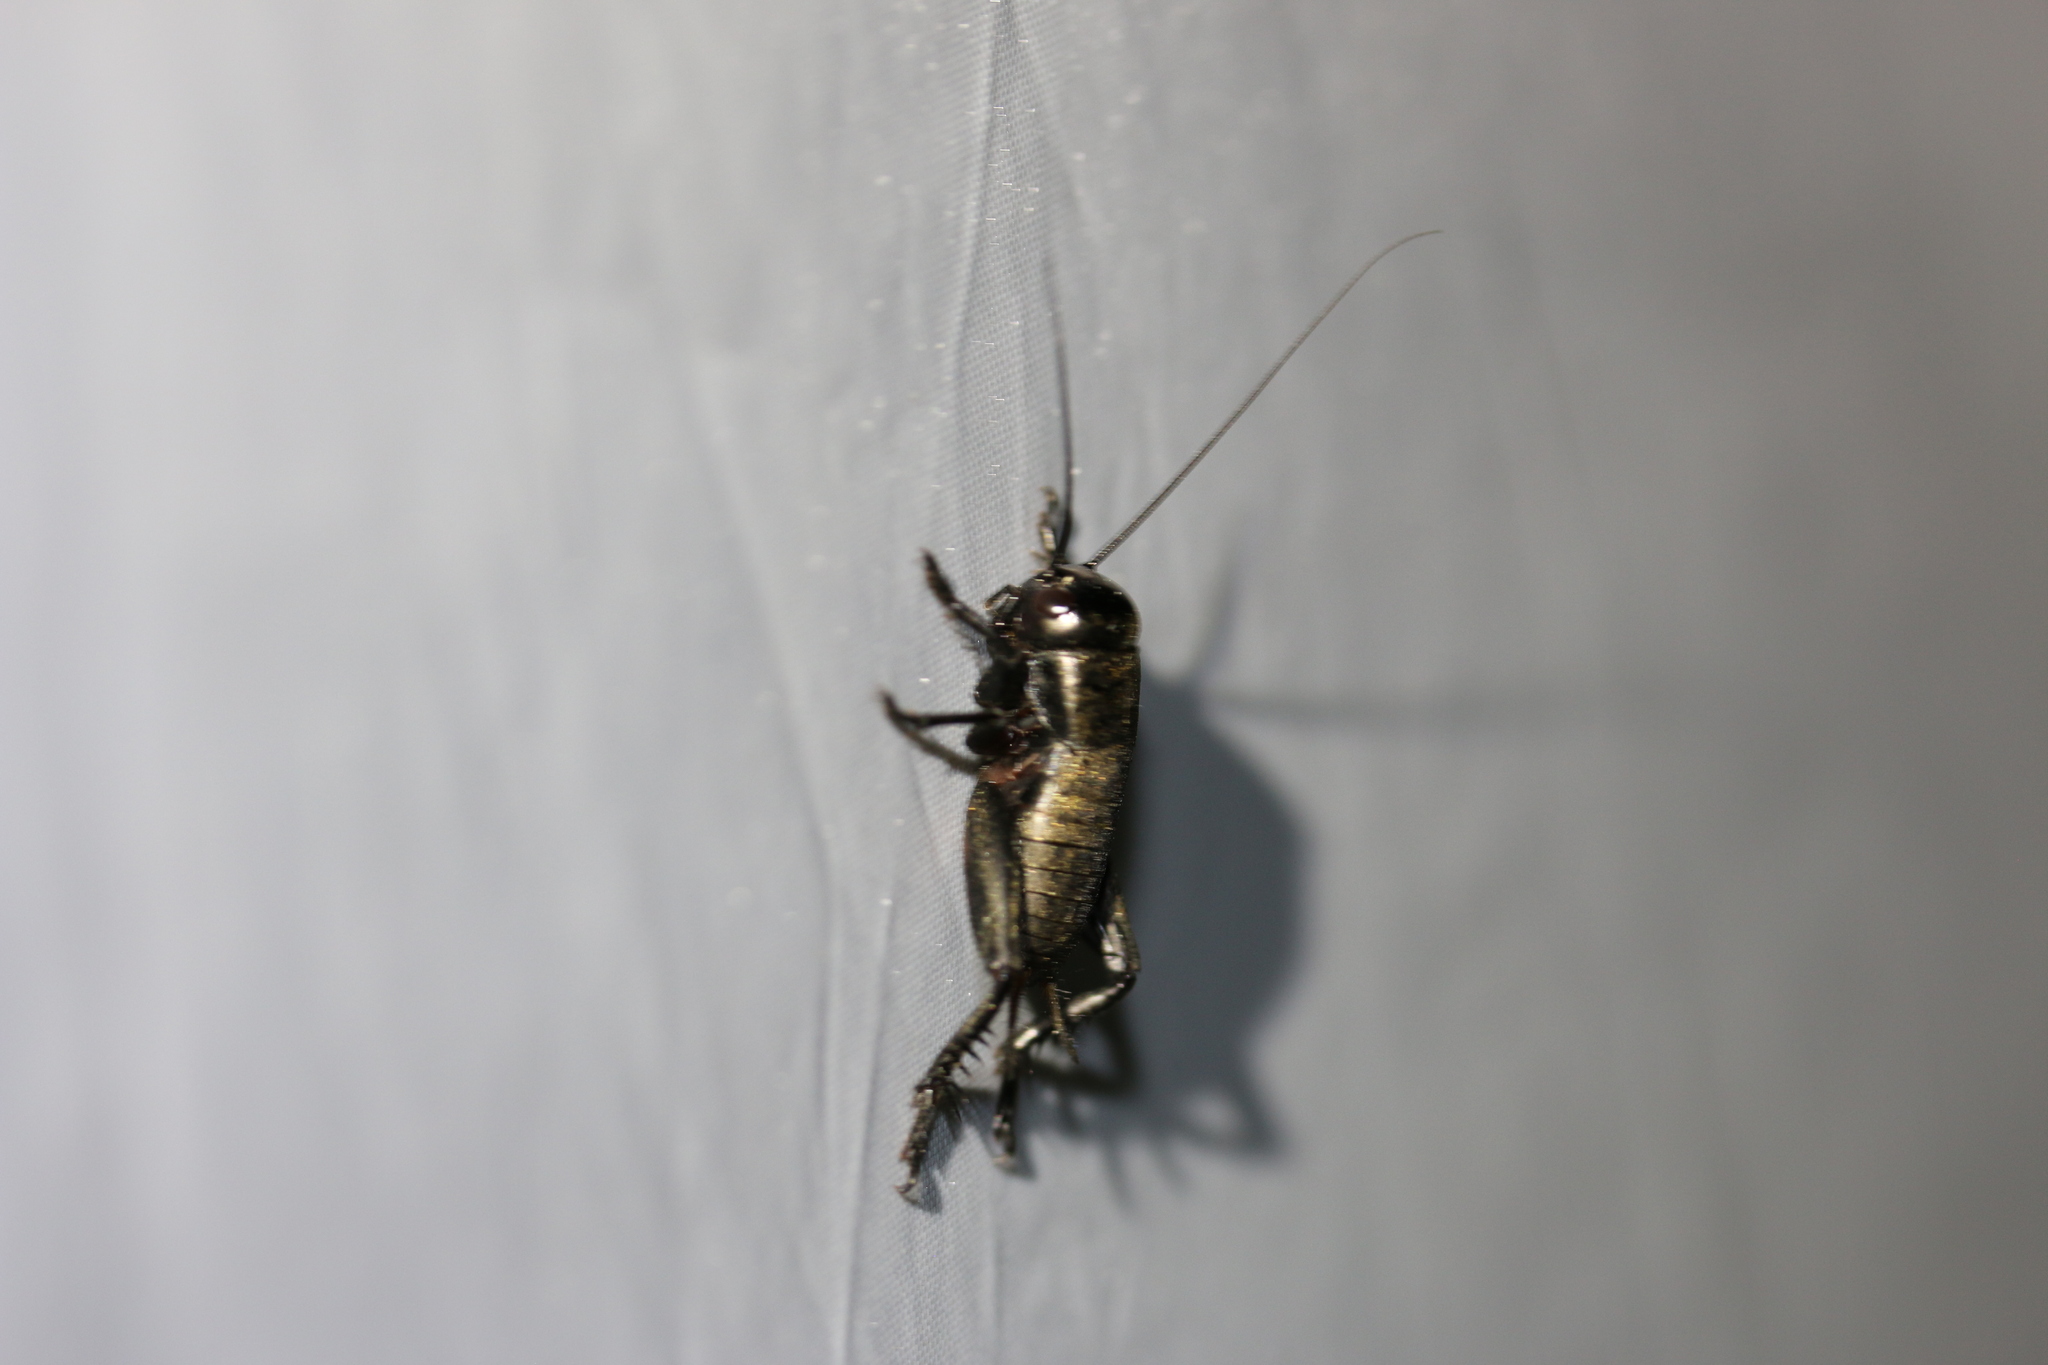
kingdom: Animalia
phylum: Arthropoda
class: Insecta
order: Orthoptera
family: Gryllidae
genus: Gryllus
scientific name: Gryllus campestris
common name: Field cricket
